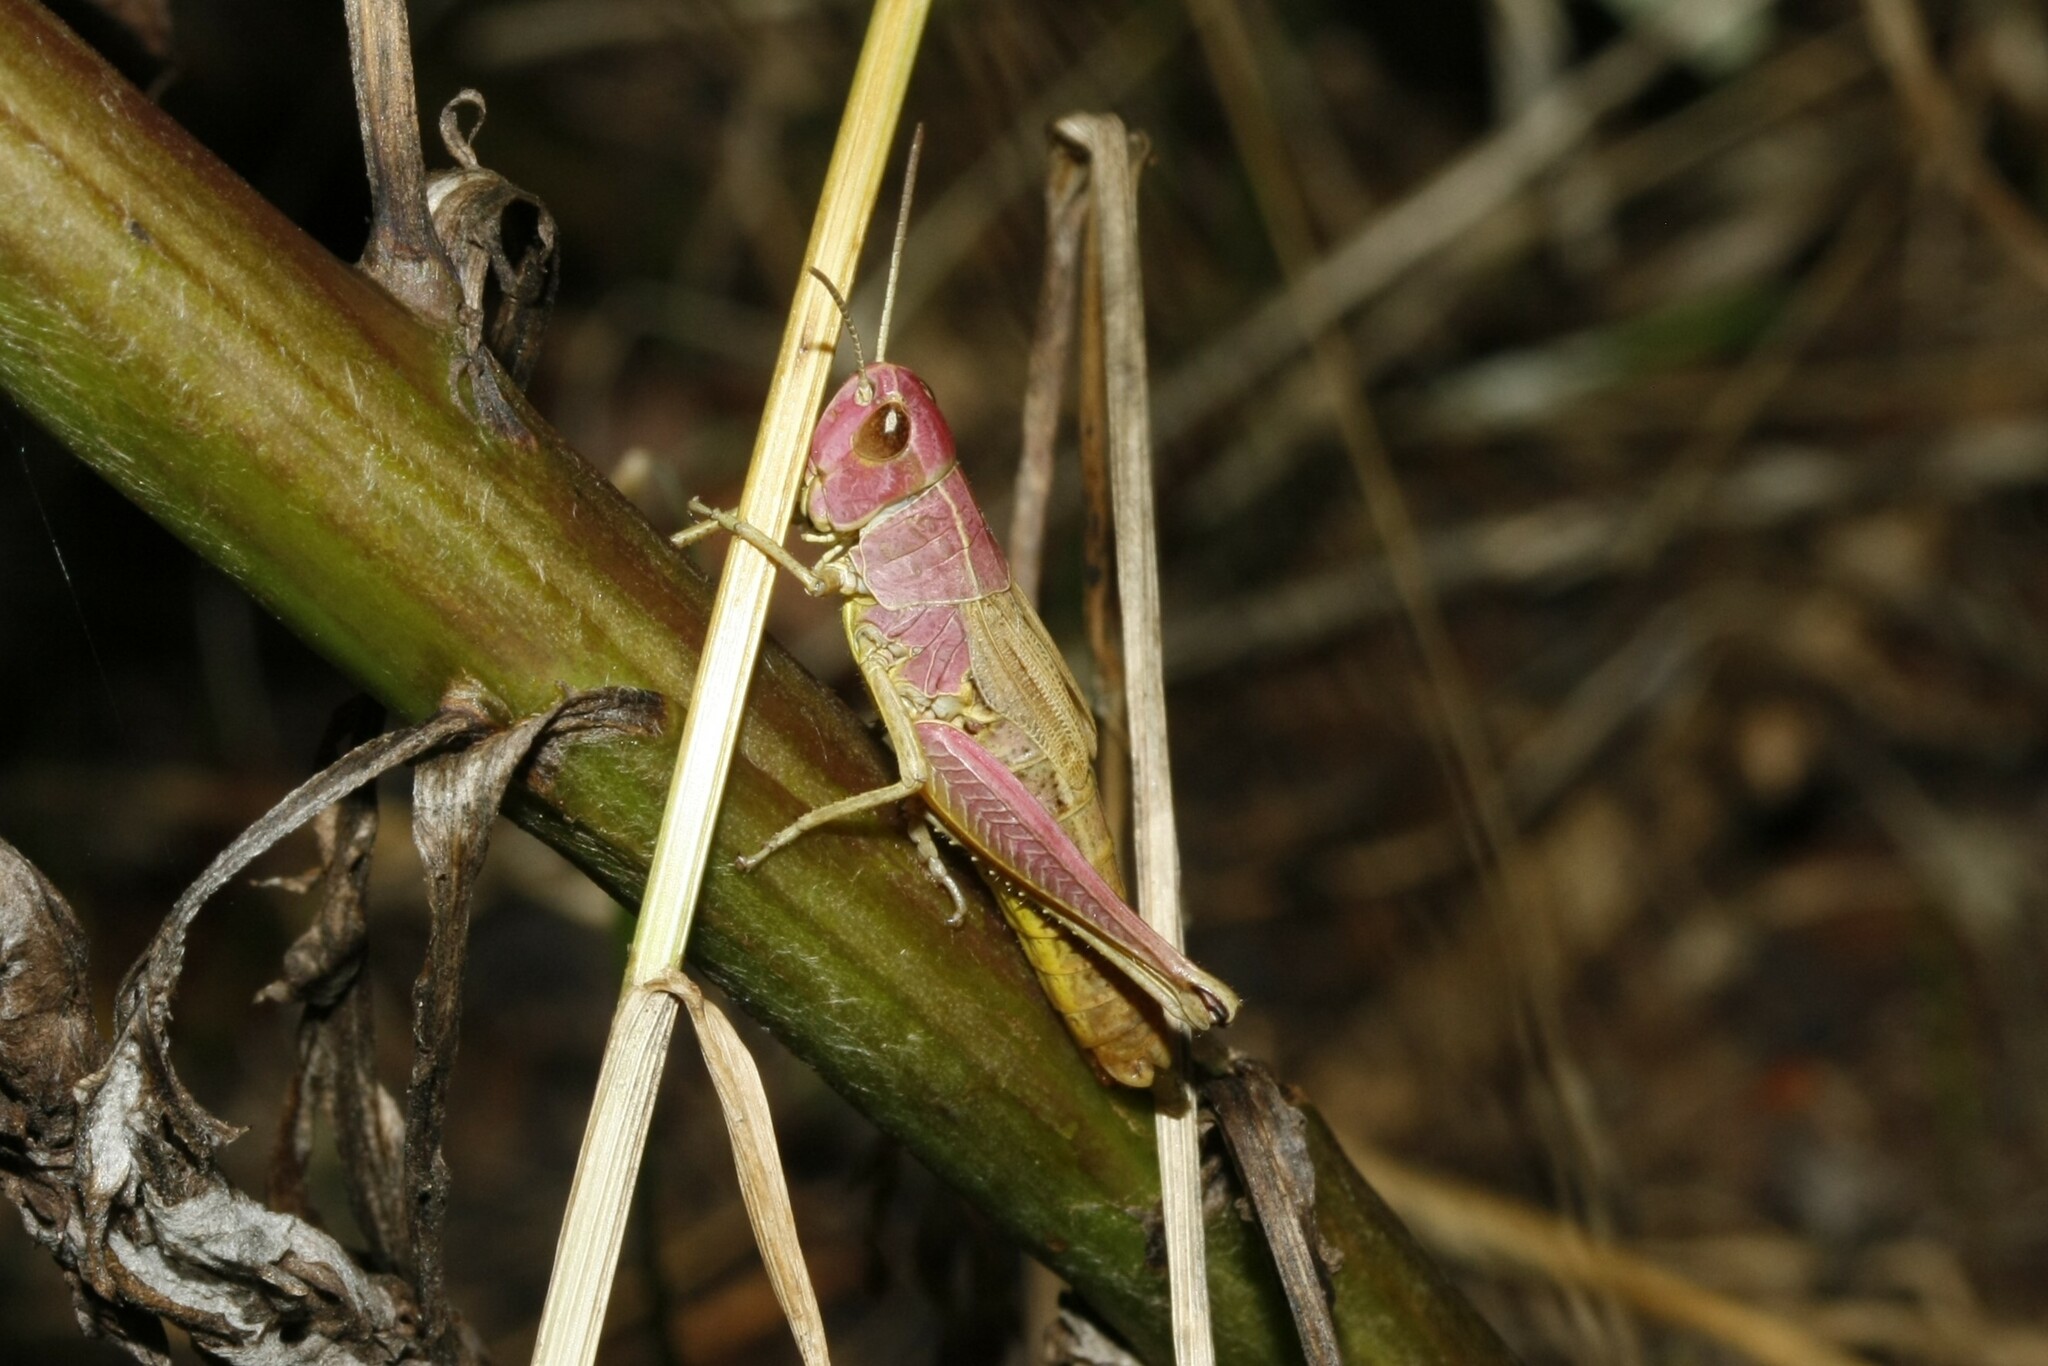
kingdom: Animalia
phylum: Arthropoda
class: Insecta
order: Orthoptera
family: Acrididae
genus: Pseudochorthippus
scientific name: Pseudochorthippus parallelus
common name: Meadow grasshopper
